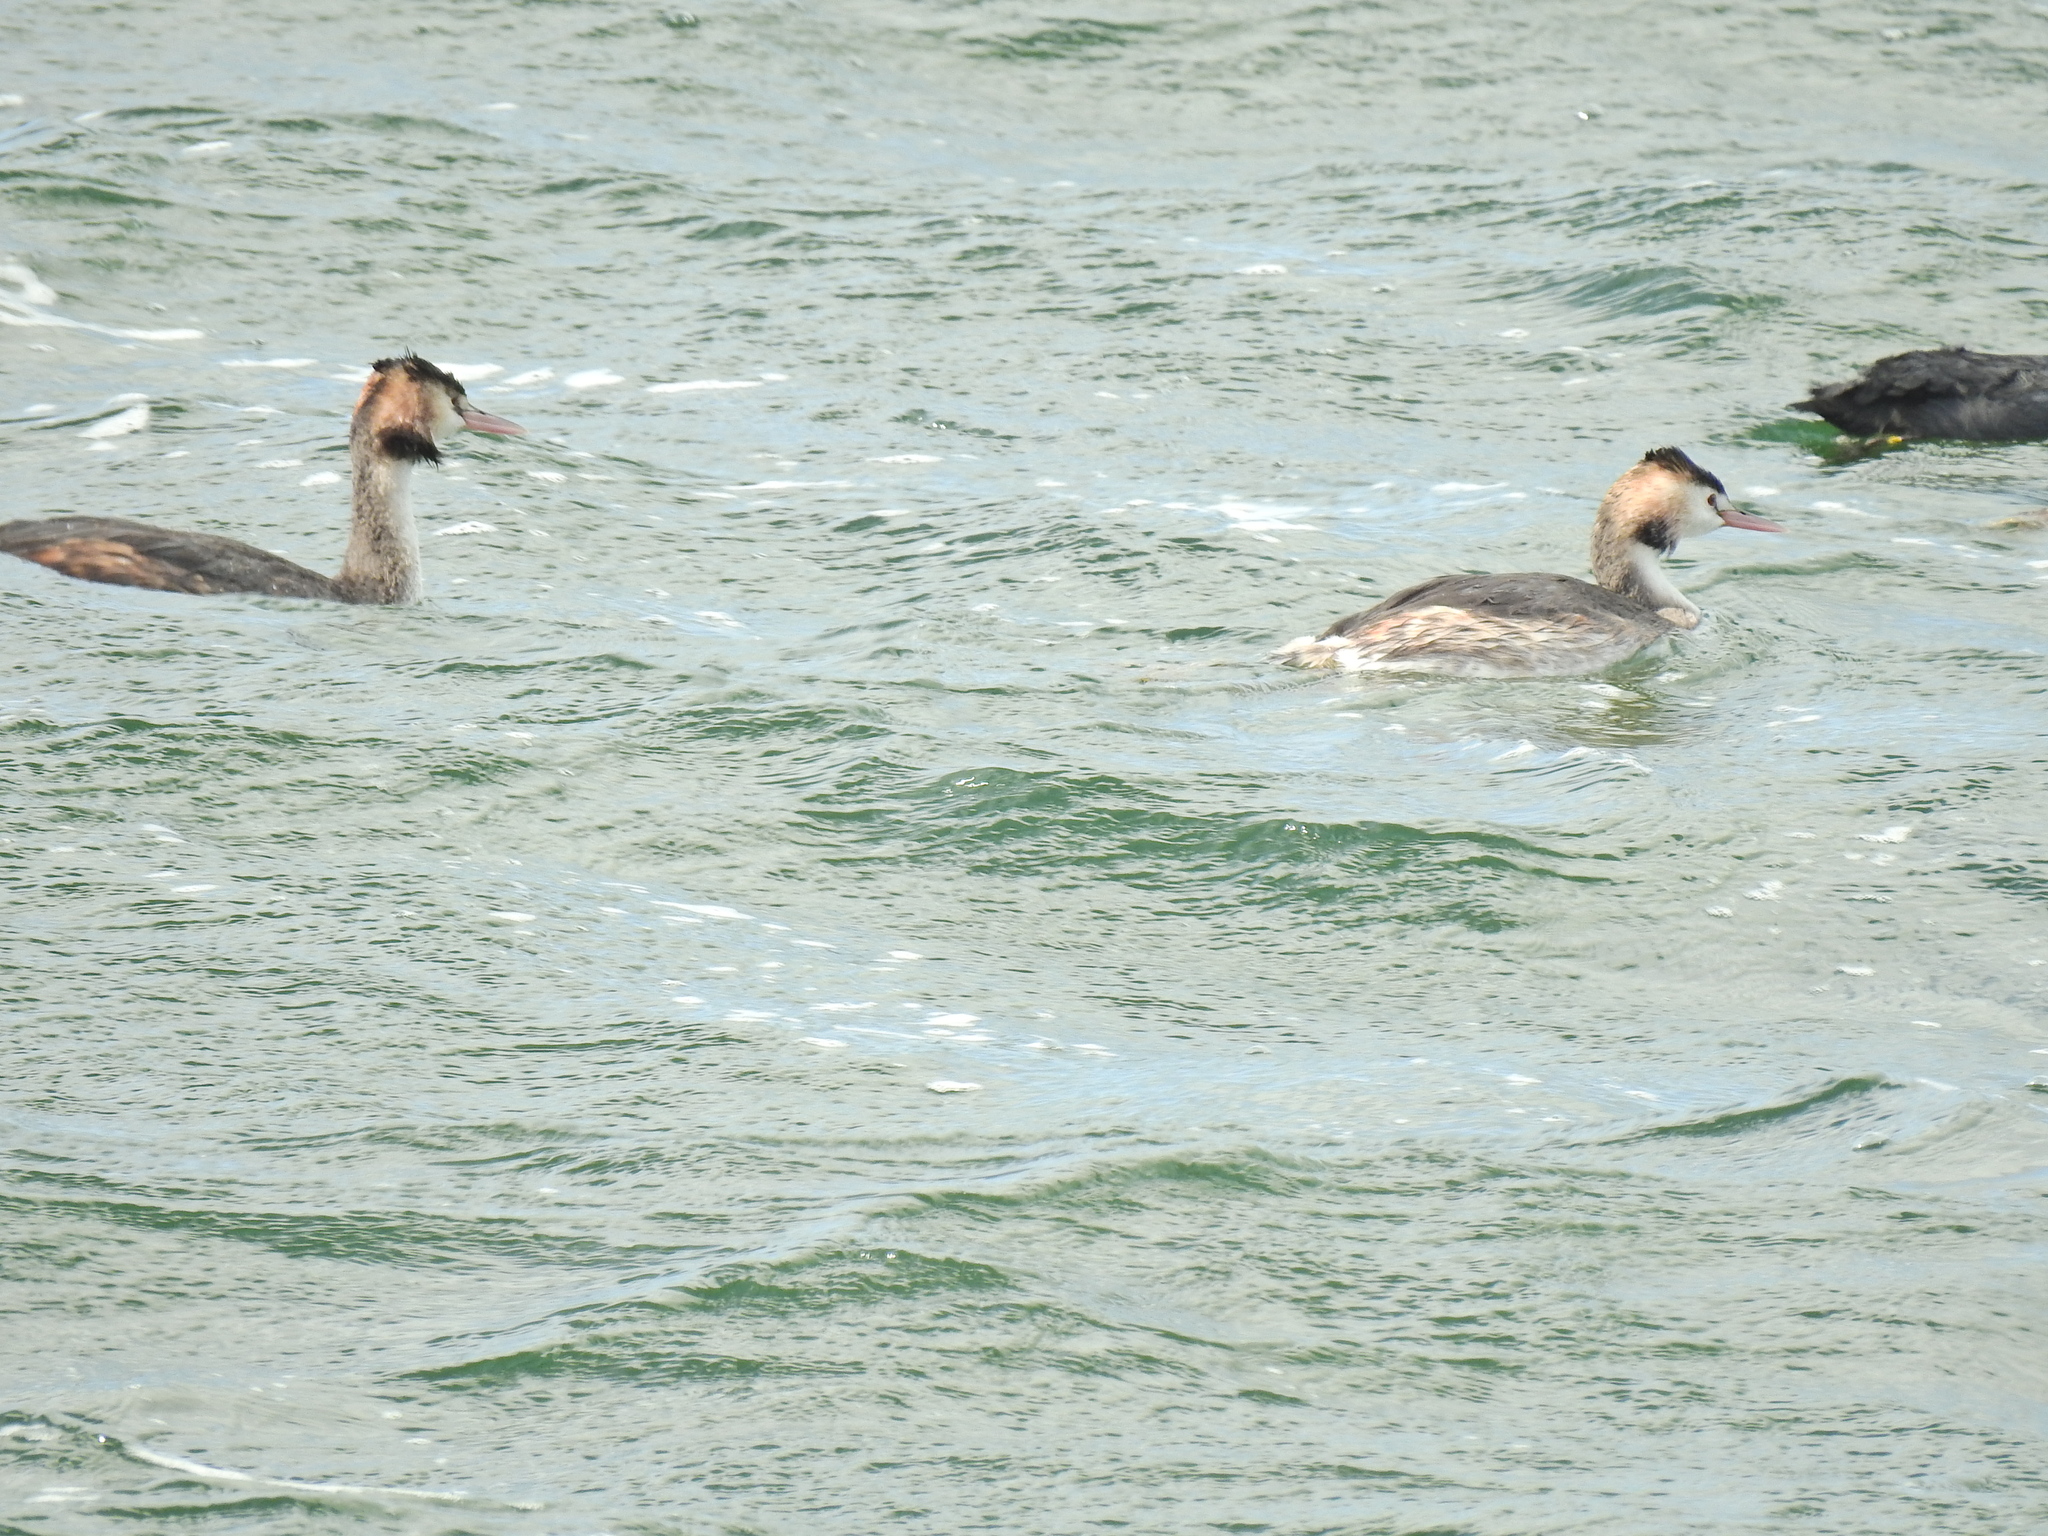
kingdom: Animalia
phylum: Chordata
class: Aves
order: Podicipediformes
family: Podicipedidae
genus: Podiceps
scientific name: Podiceps cristatus
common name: Great crested grebe
